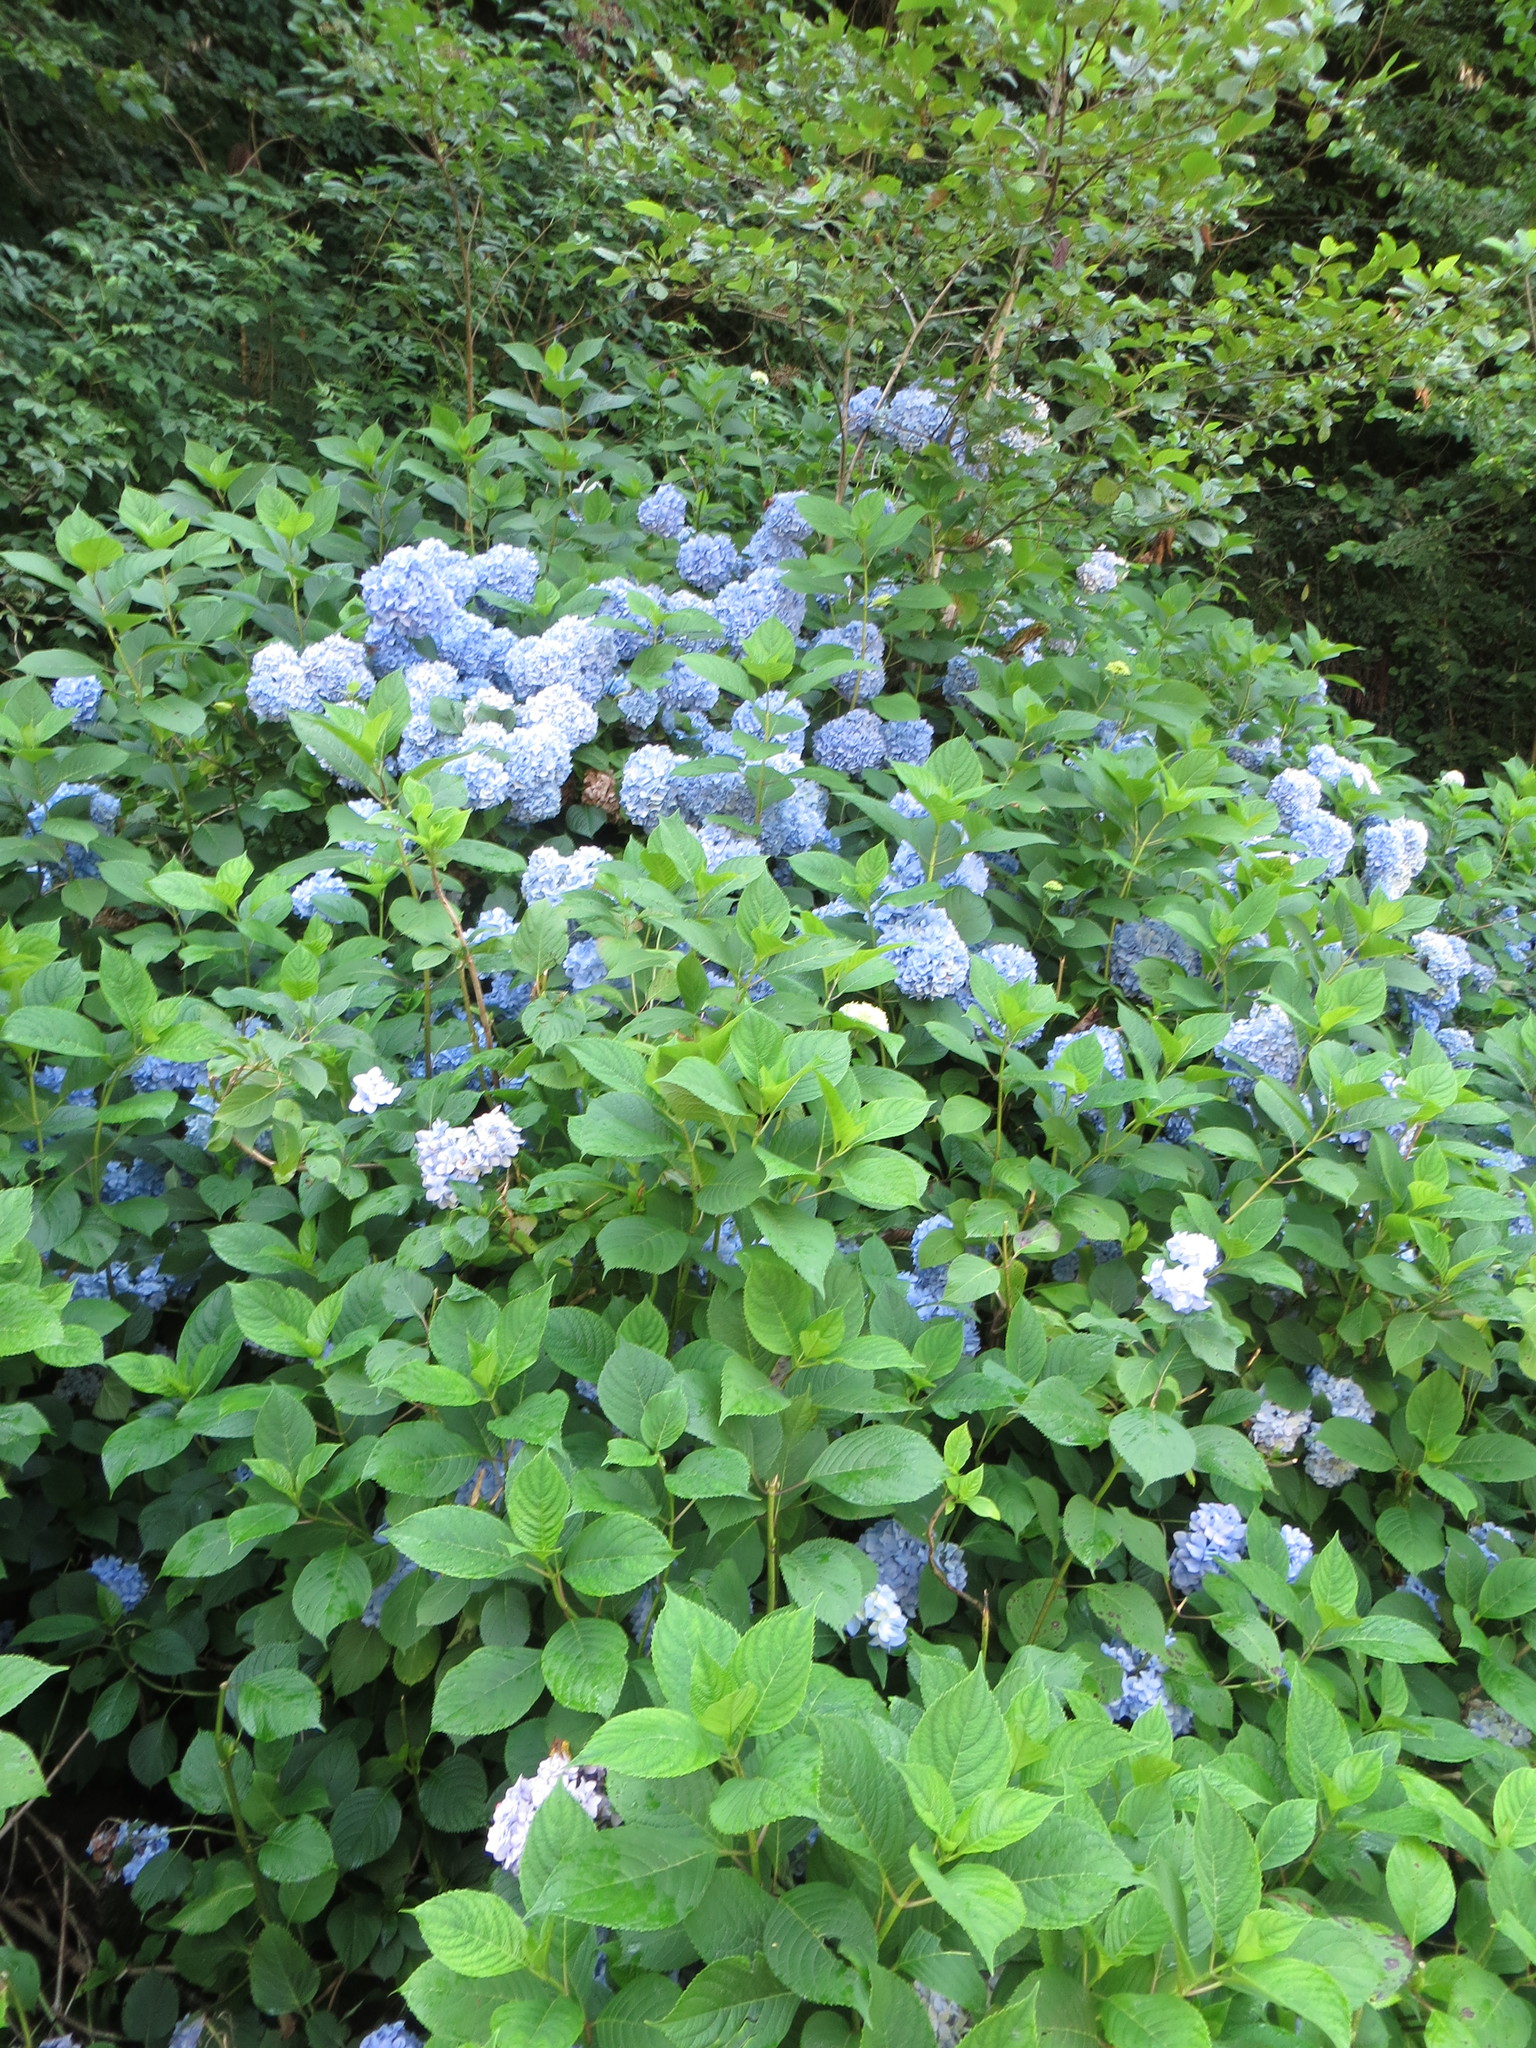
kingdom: Plantae
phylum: Tracheophyta
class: Magnoliopsida
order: Cornales
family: Hydrangeaceae
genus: Hydrangea
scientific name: Hydrangea macrophylla
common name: Hydrangea
